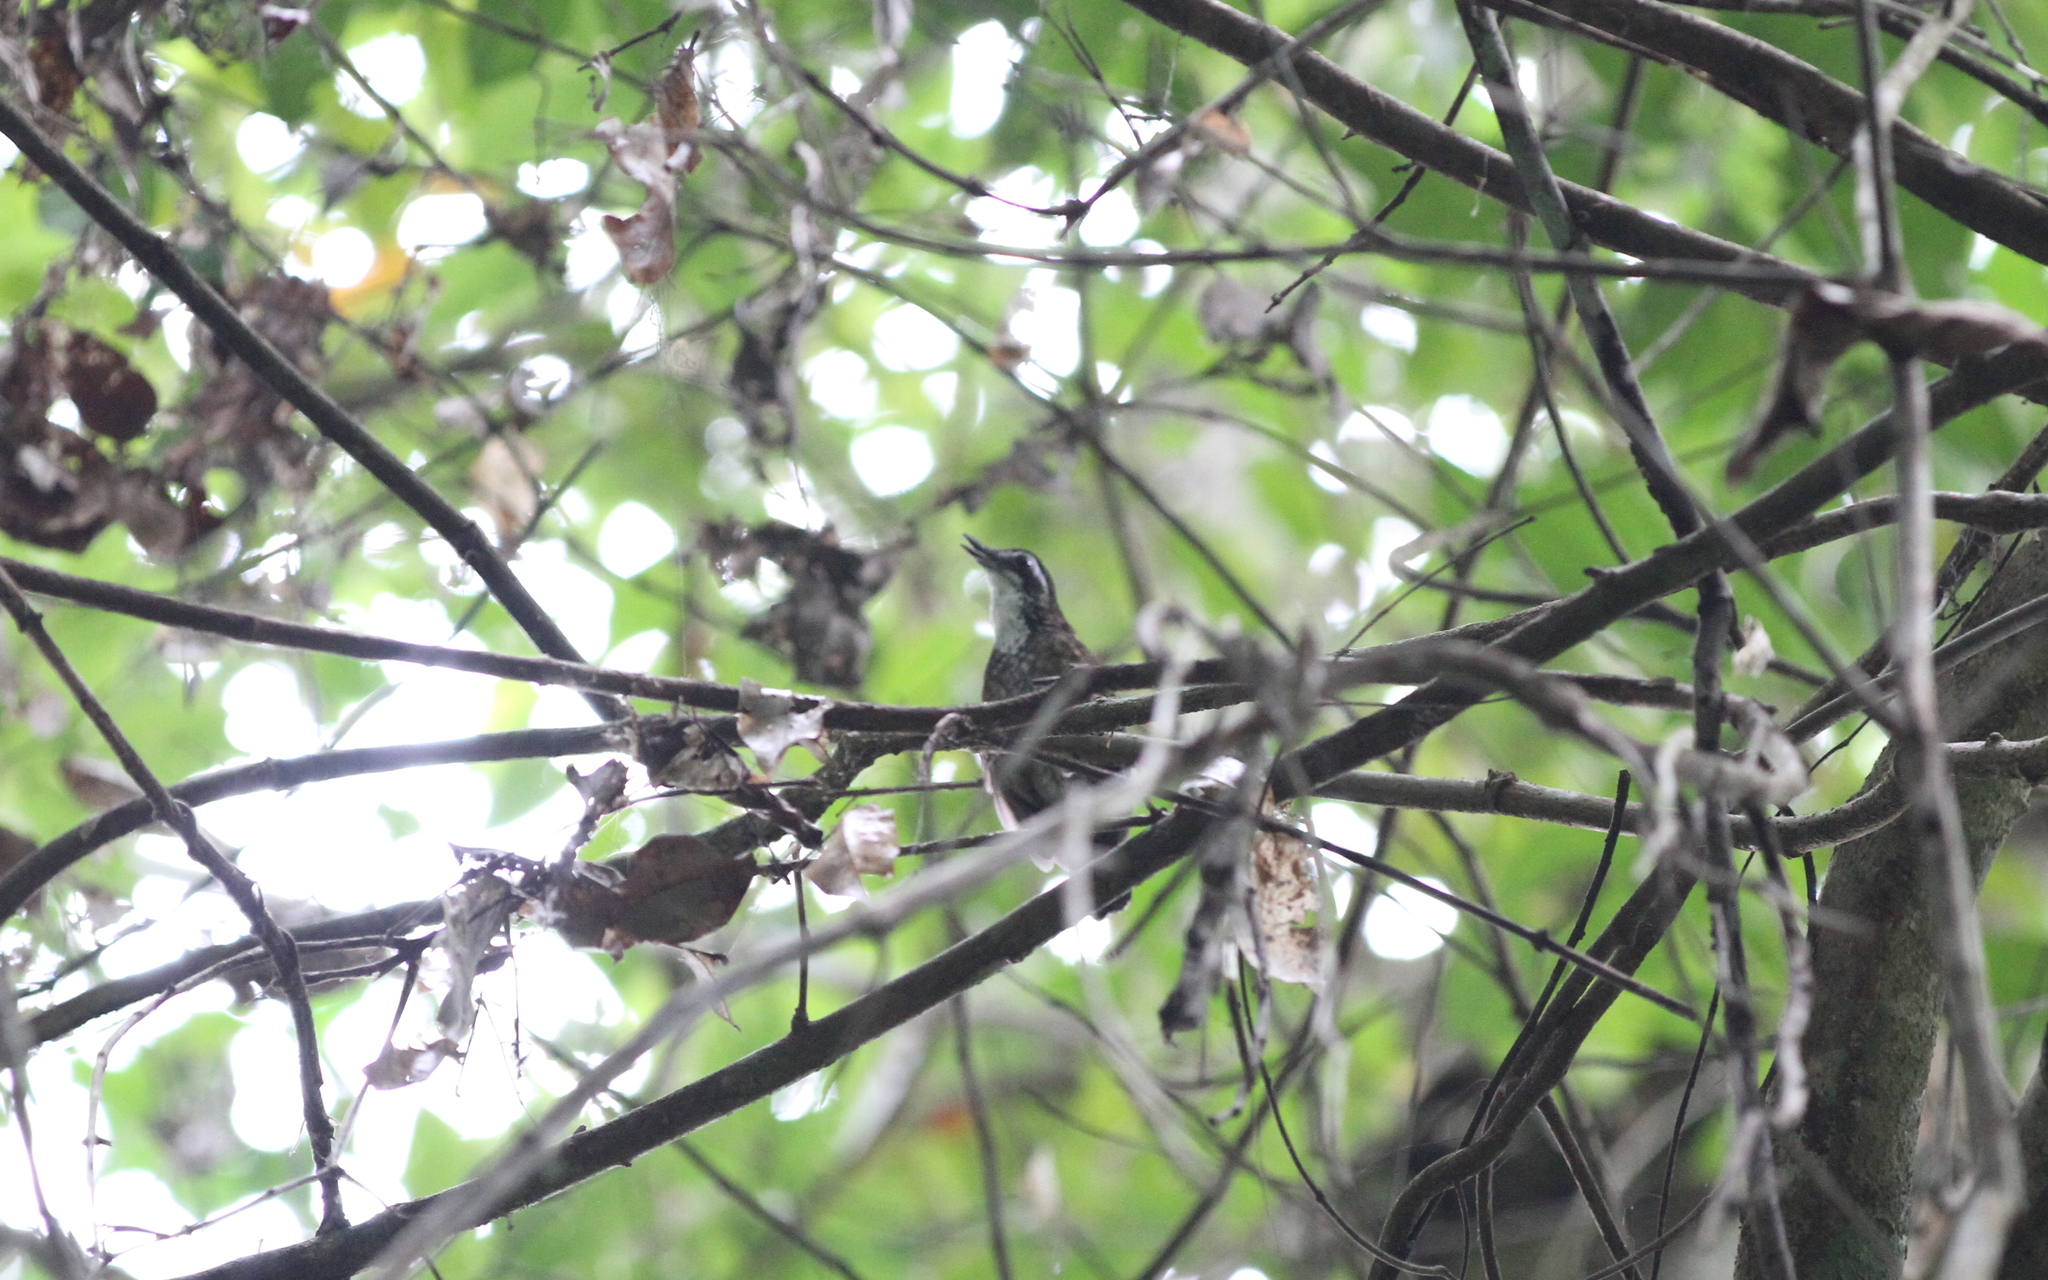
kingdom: Animalia
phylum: Chordata
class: Aves
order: Passeriformes
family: Pellorneidae
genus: Napothera
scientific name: Napothera macrodactyla
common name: Large wren-babbler
